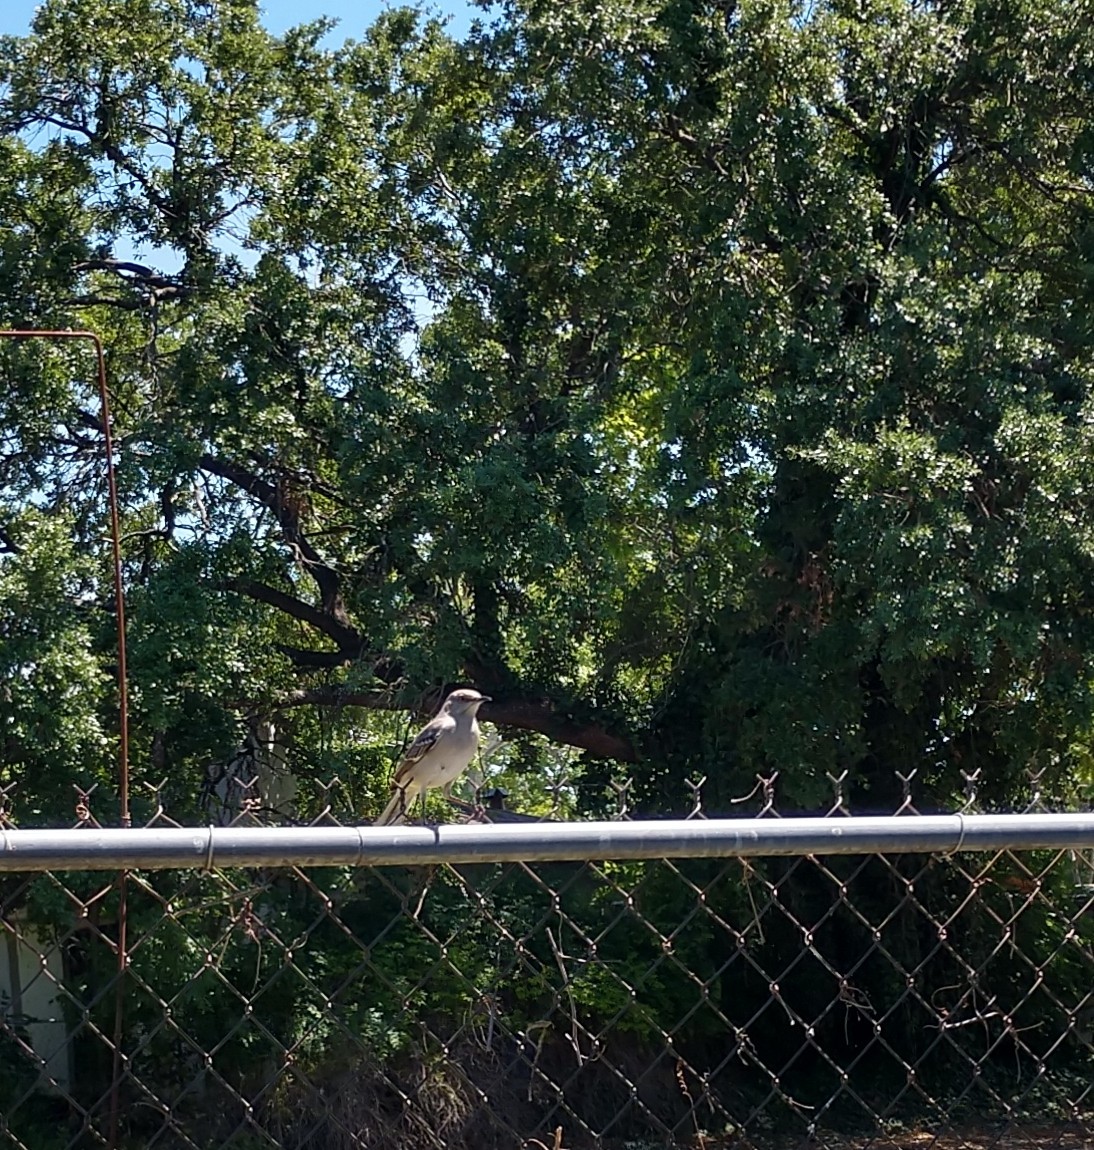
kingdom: Animalia
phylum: Chordata
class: Aves
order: Passeriformes
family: Mimidae
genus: Mimus
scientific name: Mimus polyglottos
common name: Northern mockingbird
